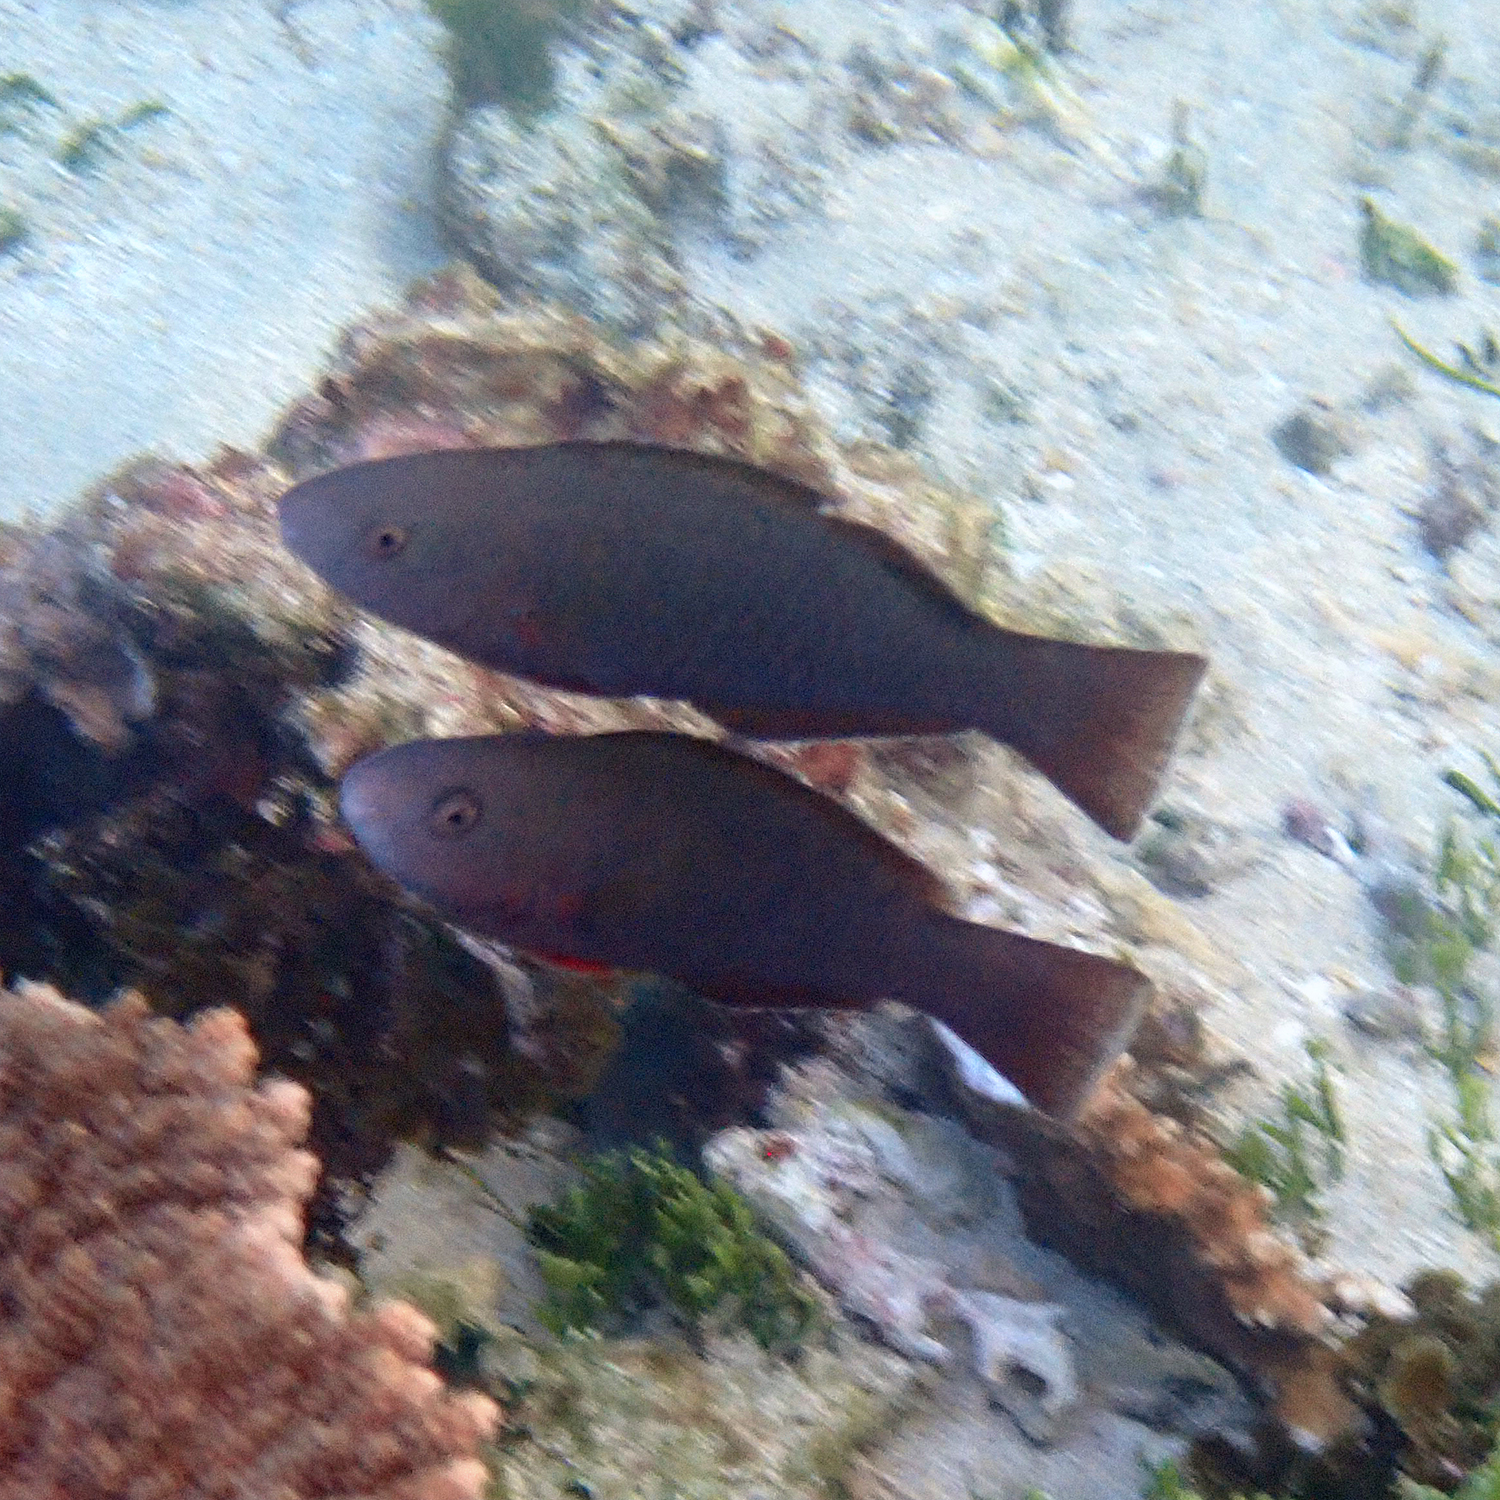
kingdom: Animalia
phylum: Chordata
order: Perciformes
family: Scaridae
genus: Scarus
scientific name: Scarus psittacus
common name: Palenose parrotfish
